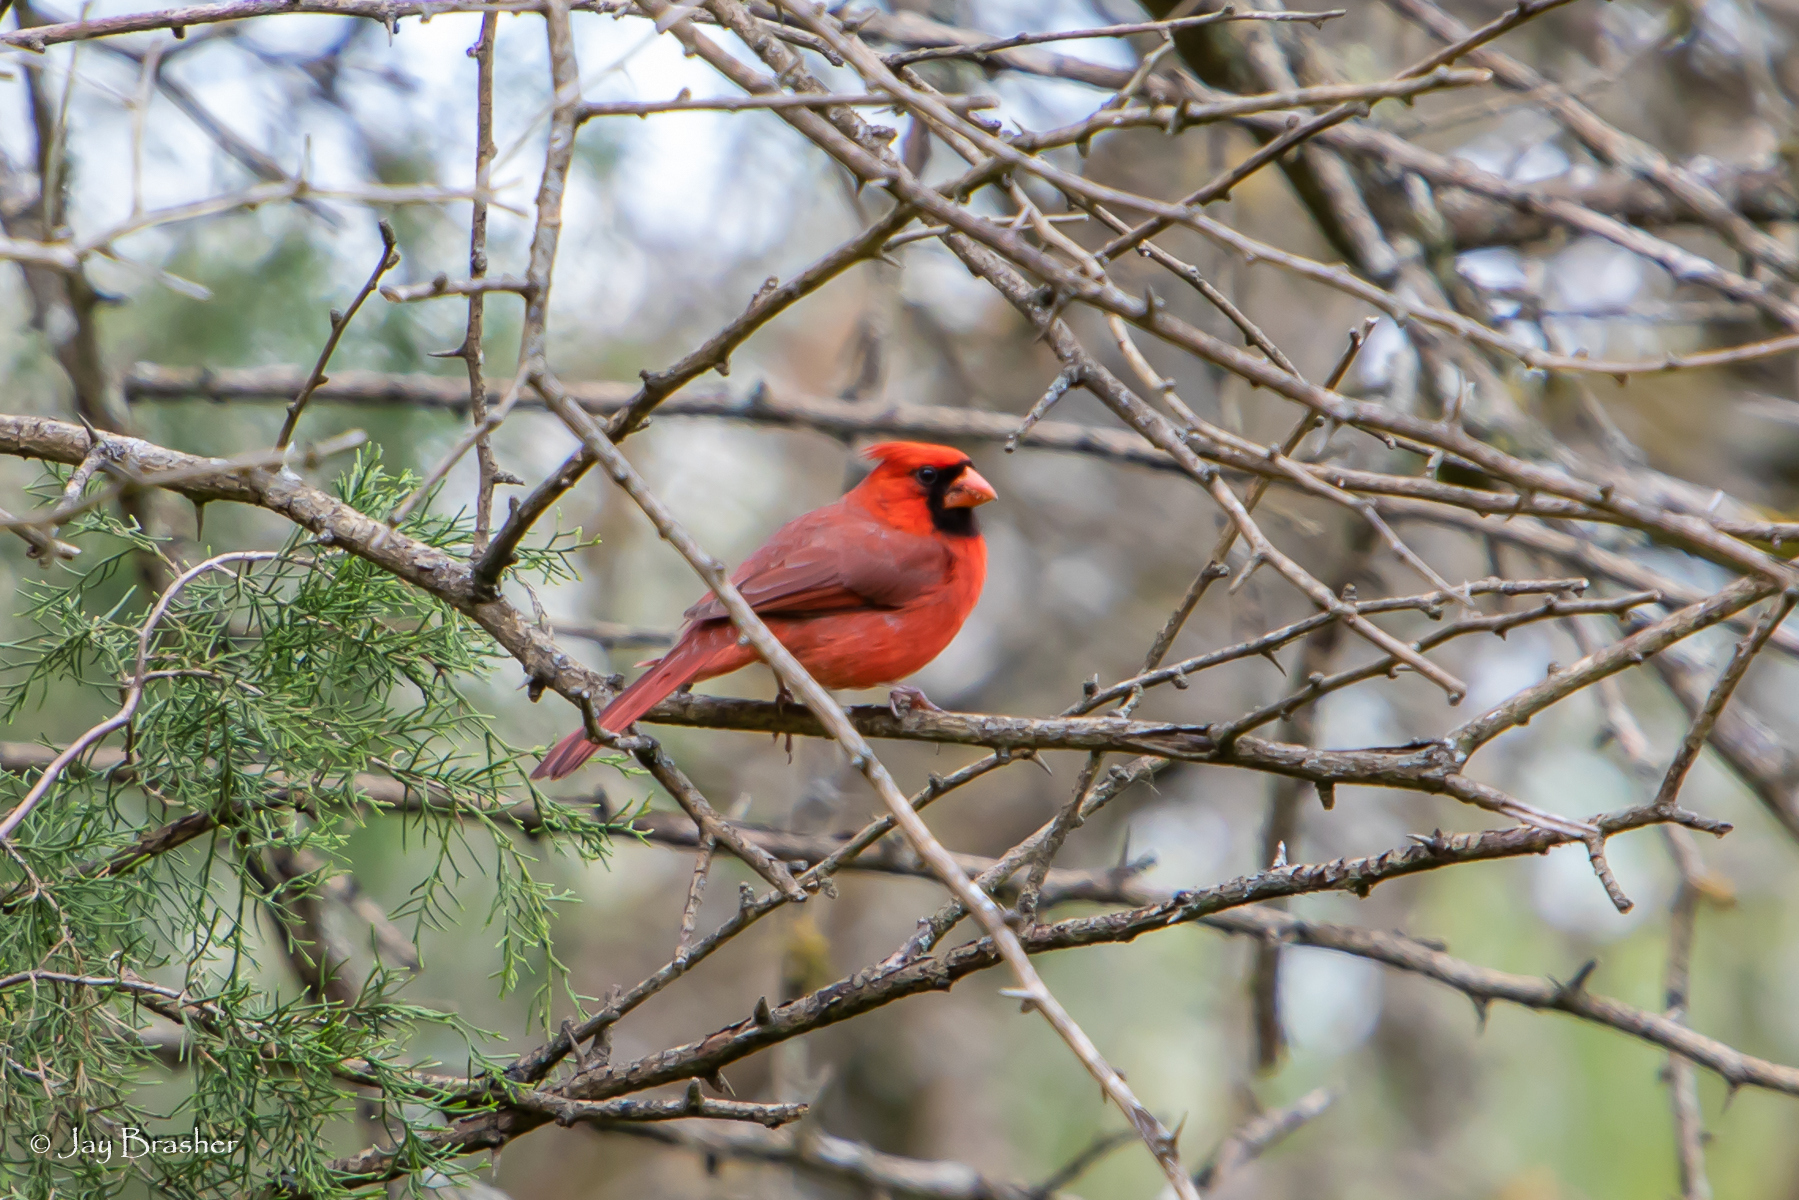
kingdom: Animalia
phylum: Chordata
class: Aves
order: Passeriformes
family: Cardinalidae
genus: Cardinalis
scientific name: Cardinalis cardinalis
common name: Northern cardinal
